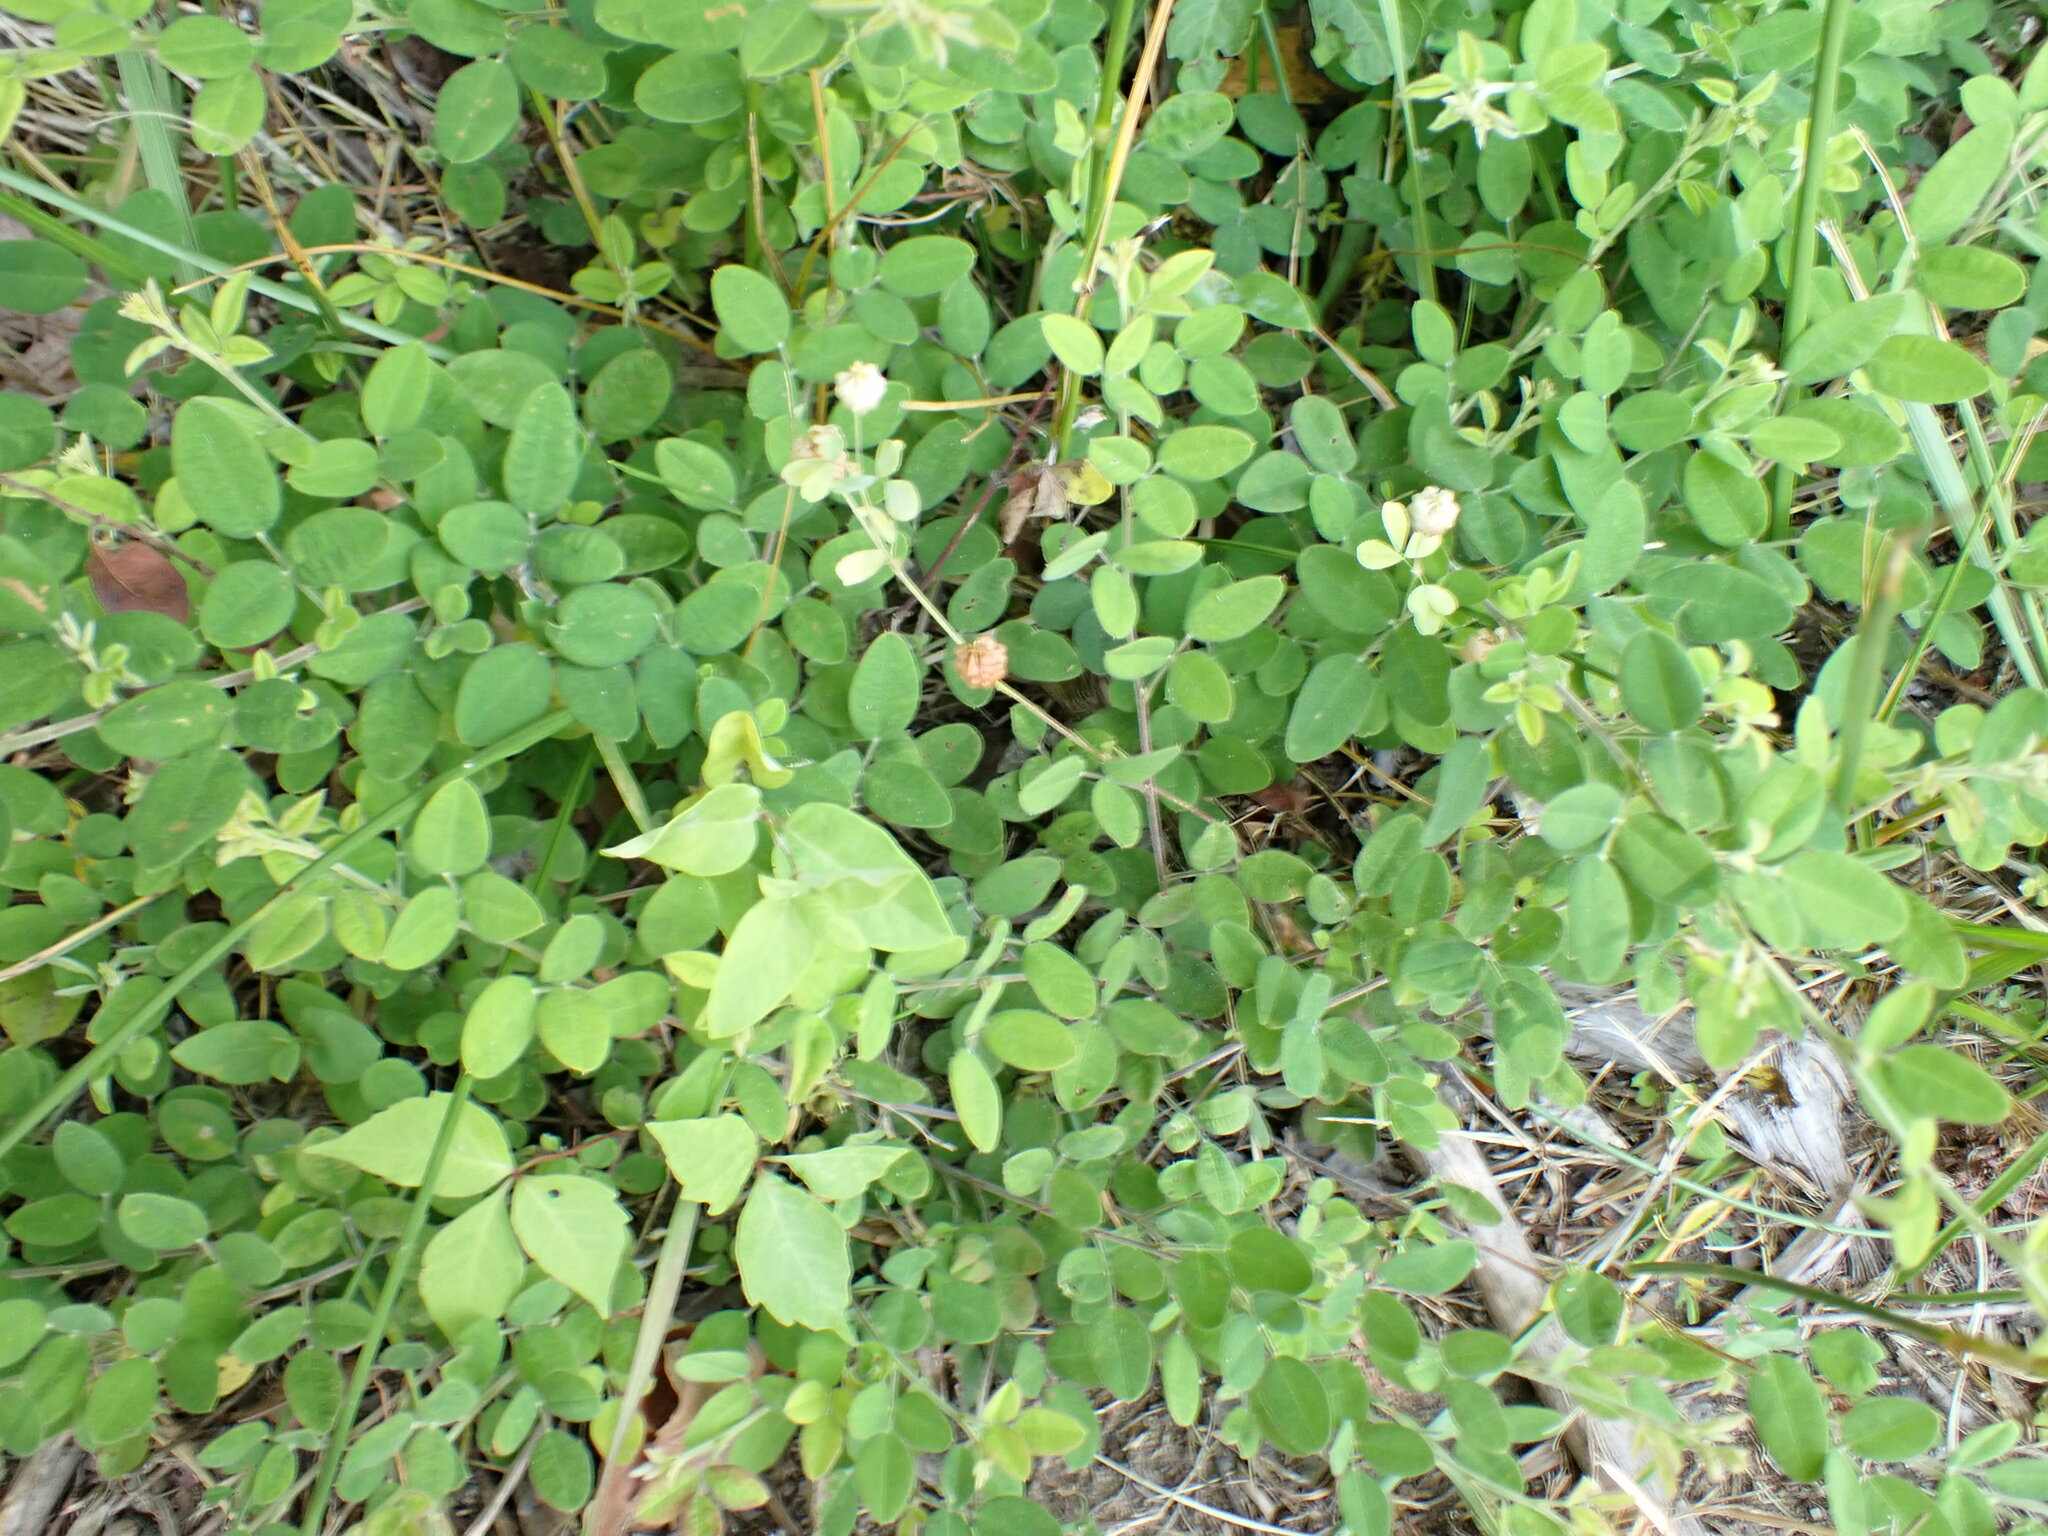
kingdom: Plantae
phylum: Tracheophyta
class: Magnoliopsida
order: Fabales
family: Fabaceae
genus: Lespedeza
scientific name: Lespedeza procumbens
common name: Downy trailing bush-clover
